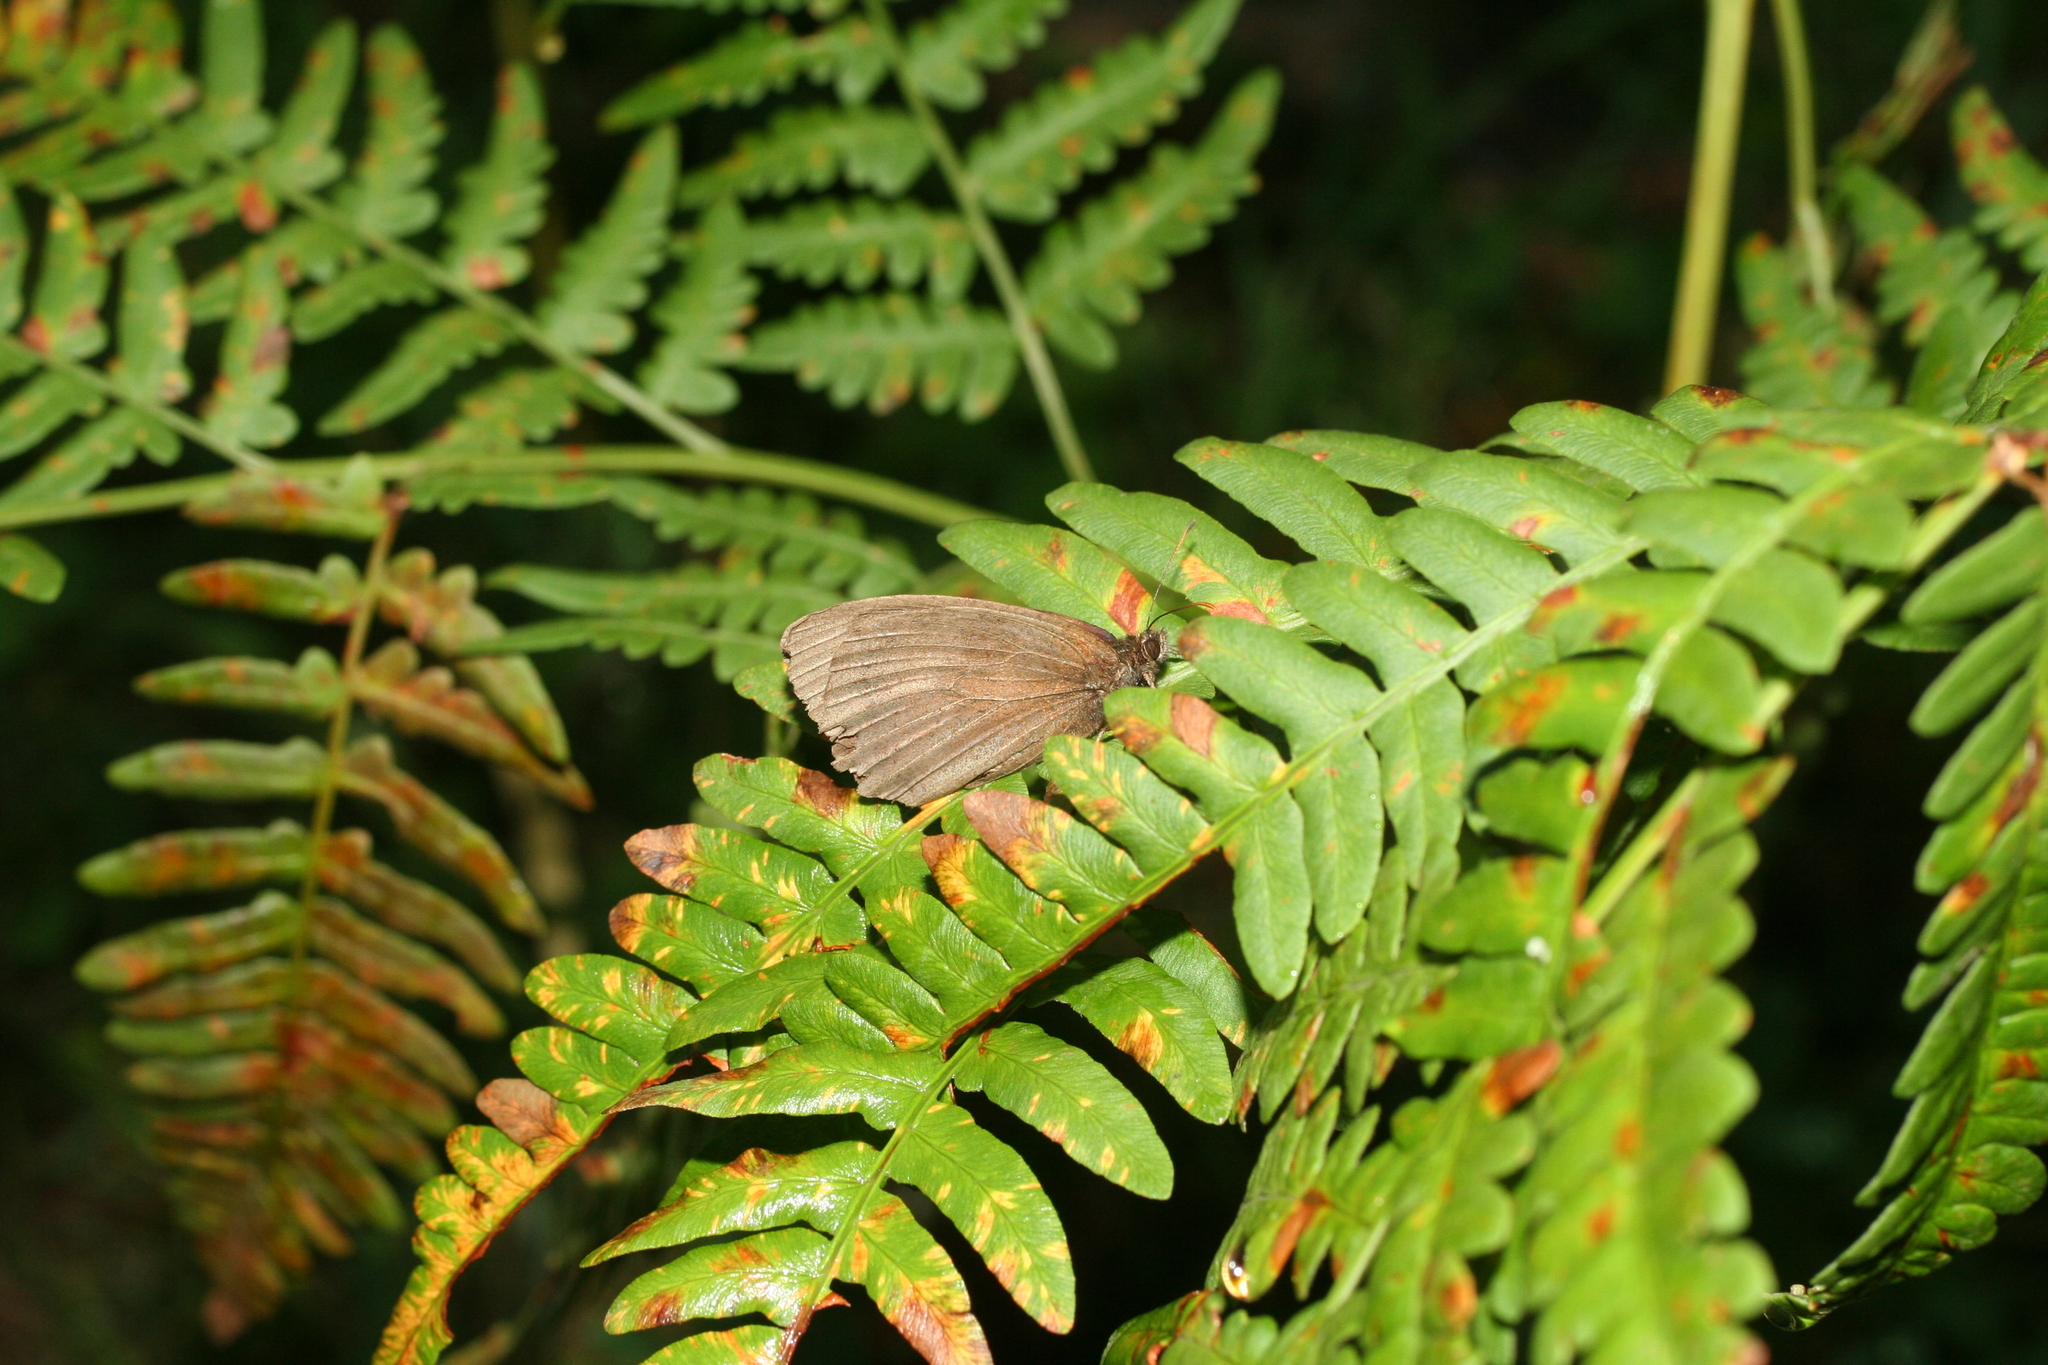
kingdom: Plantae
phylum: Tracheophyta
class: Polypodiopsida
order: Polypodiales
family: Dennstaedtiaceae
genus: Pteridium
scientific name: Pteridium aquilinum
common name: Bracken
